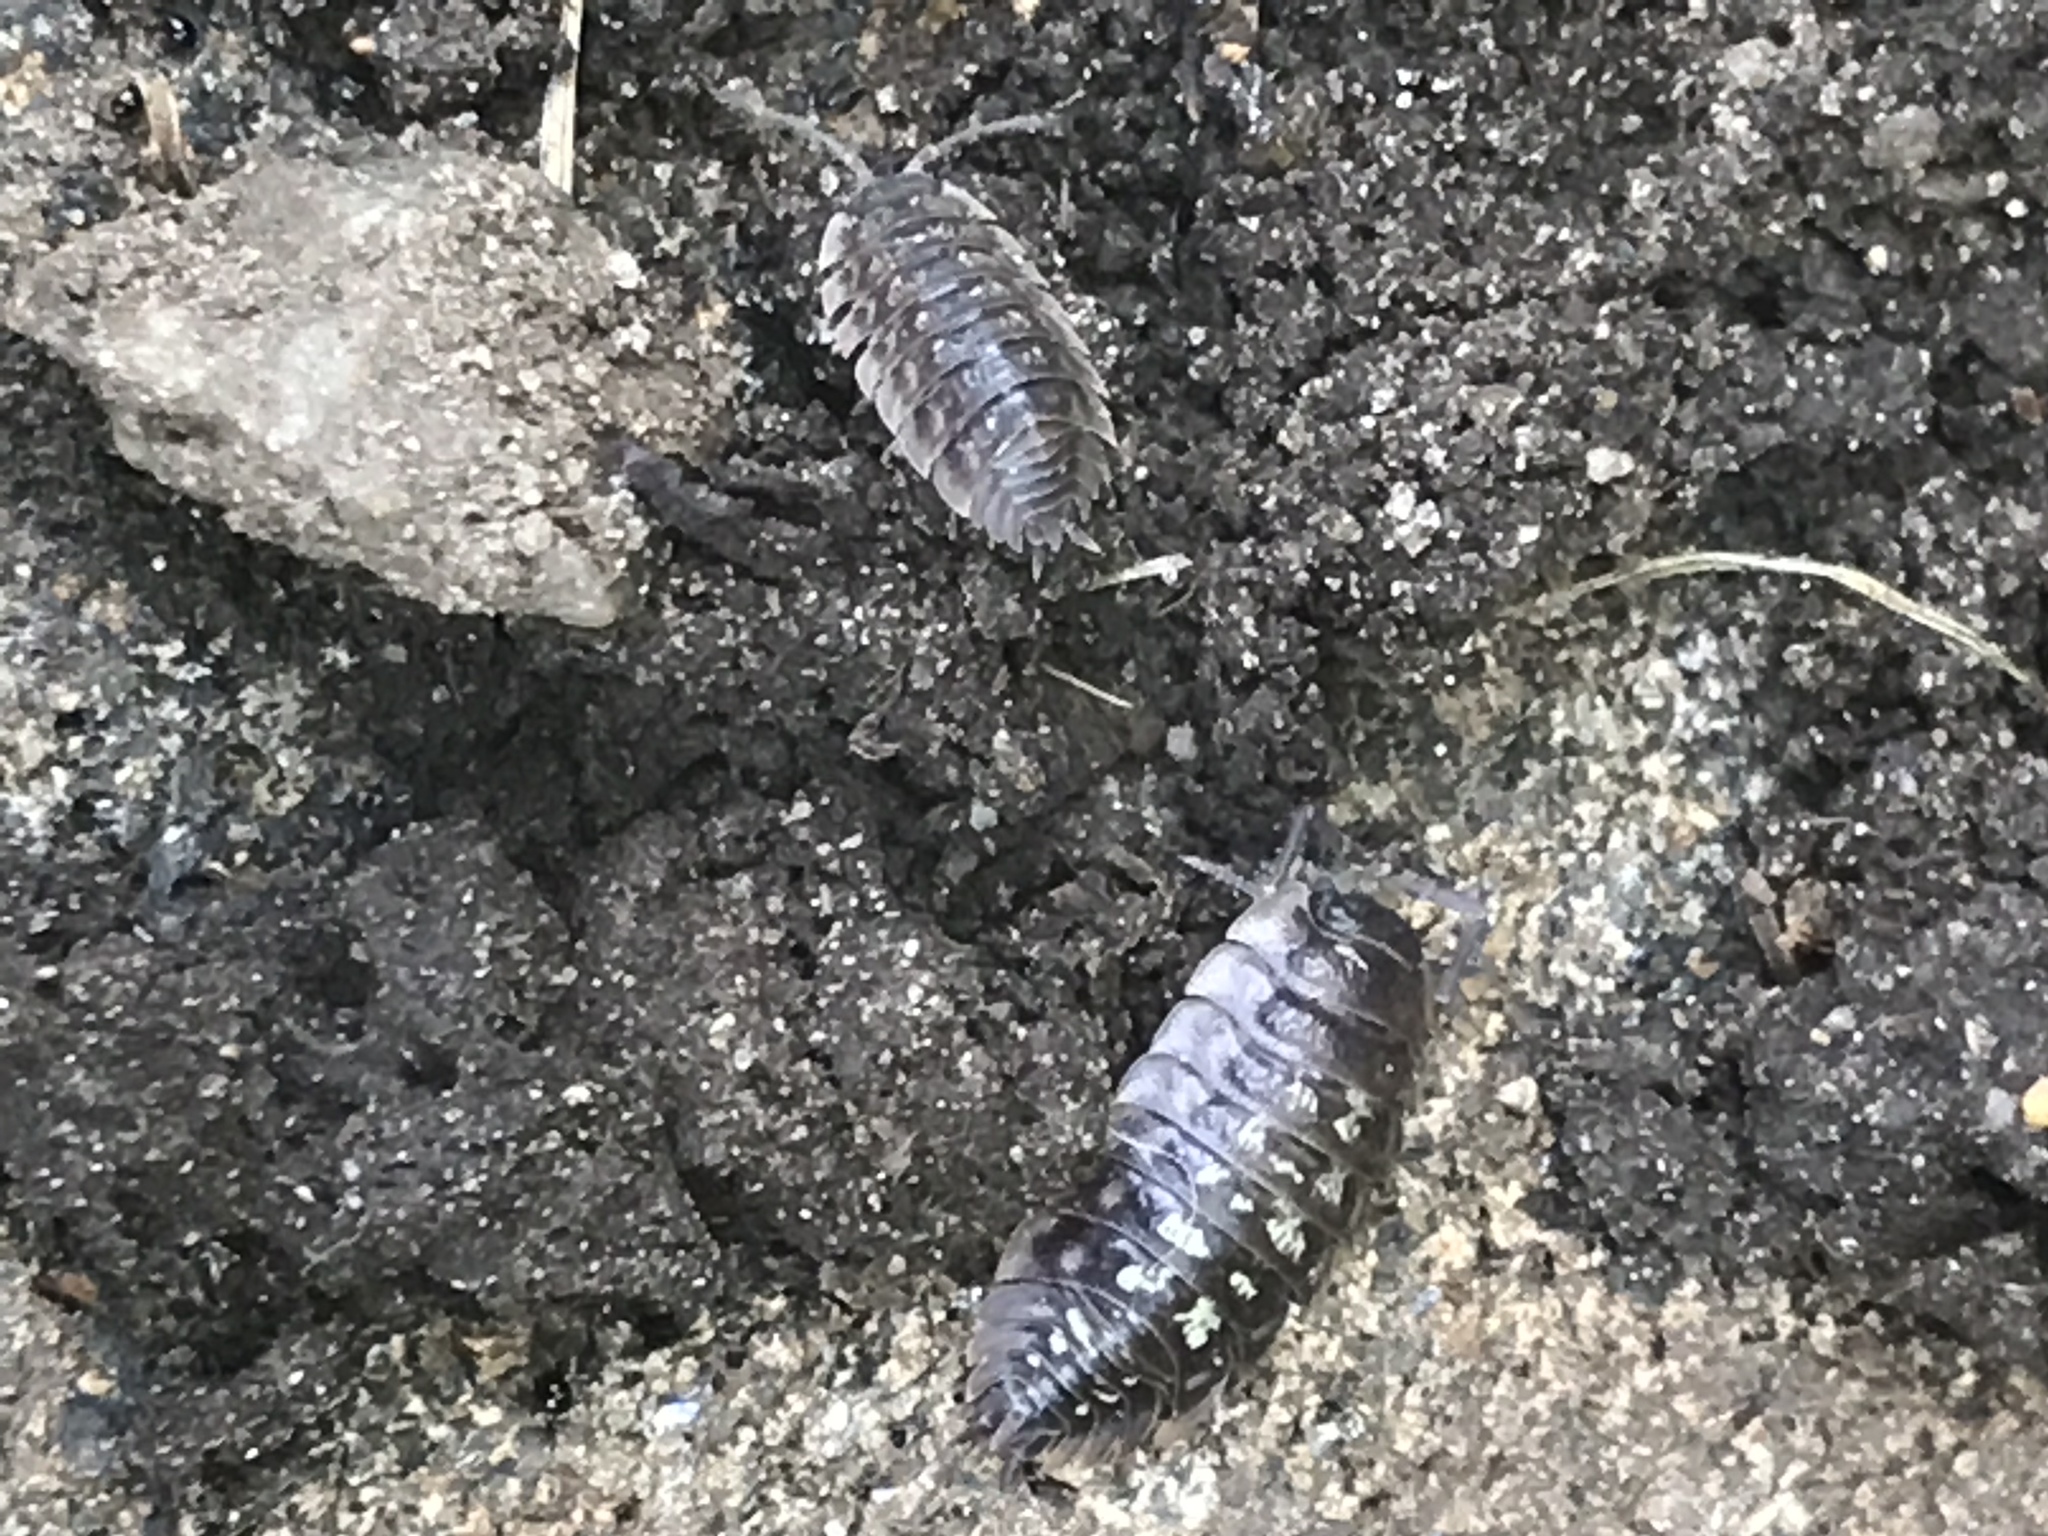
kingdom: Animalia
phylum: Arthropoda
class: Malacostraca
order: Isopoda
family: Oniscidae
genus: Oniscus
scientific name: Oniscus asellus
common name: Common shiny woodlouse
